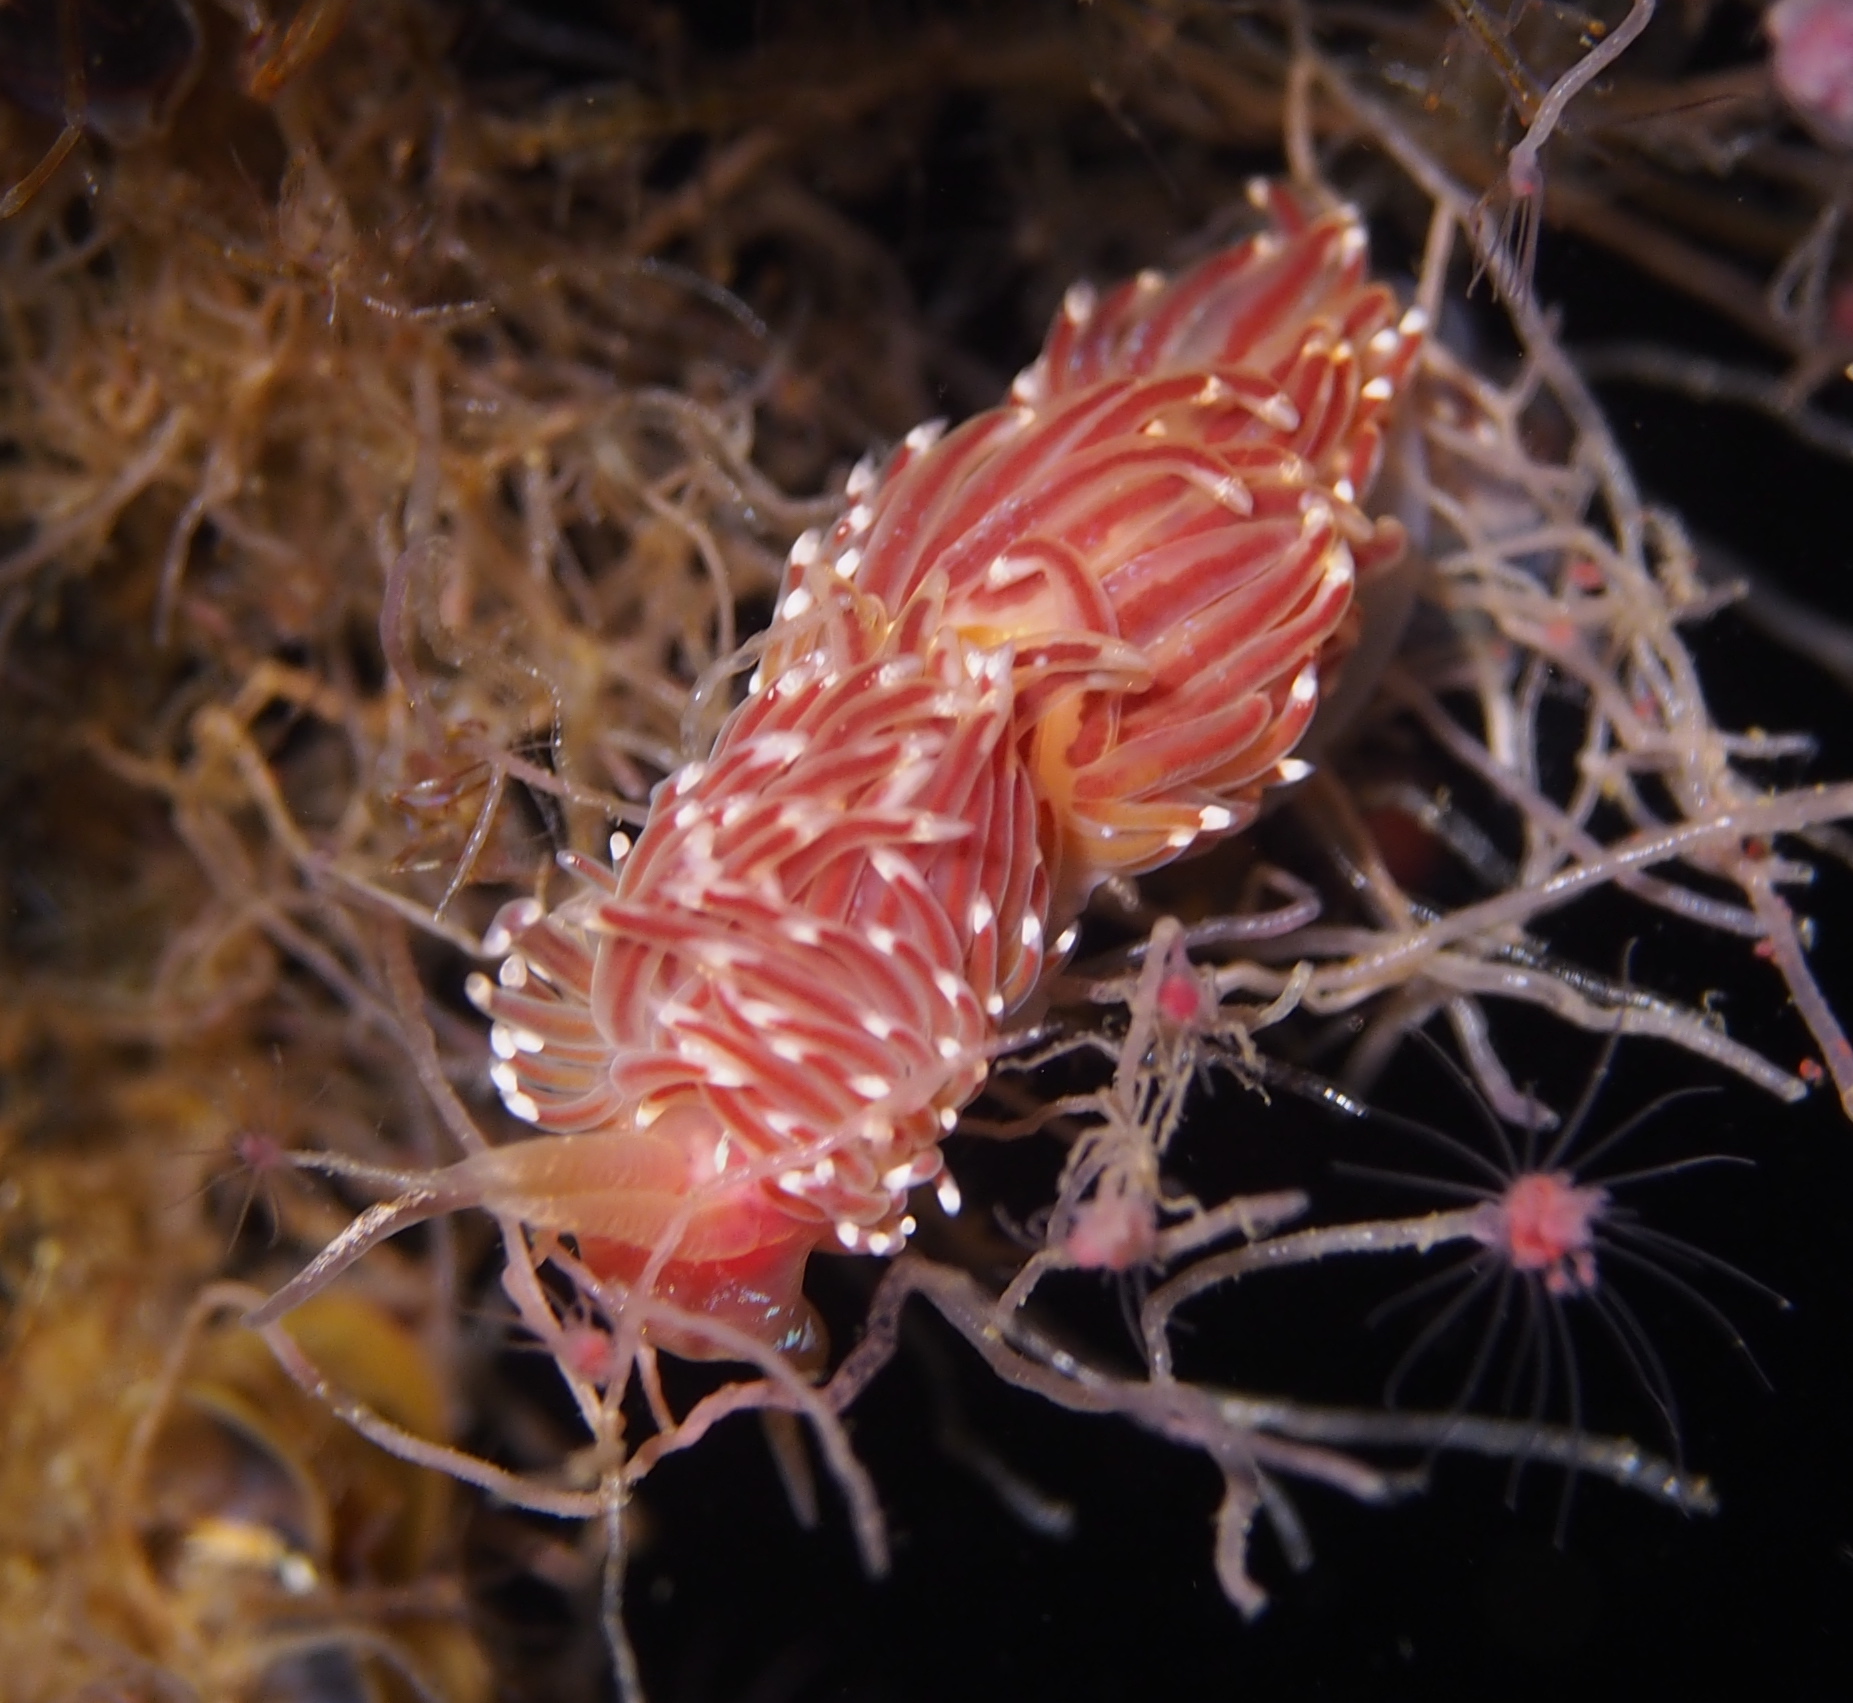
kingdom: Animalia
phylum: Mollusca
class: Gastropoda
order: Nudibranchia
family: Facelinidae
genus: Facelina
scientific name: Facelina bostoniensis
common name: Boston facelina
